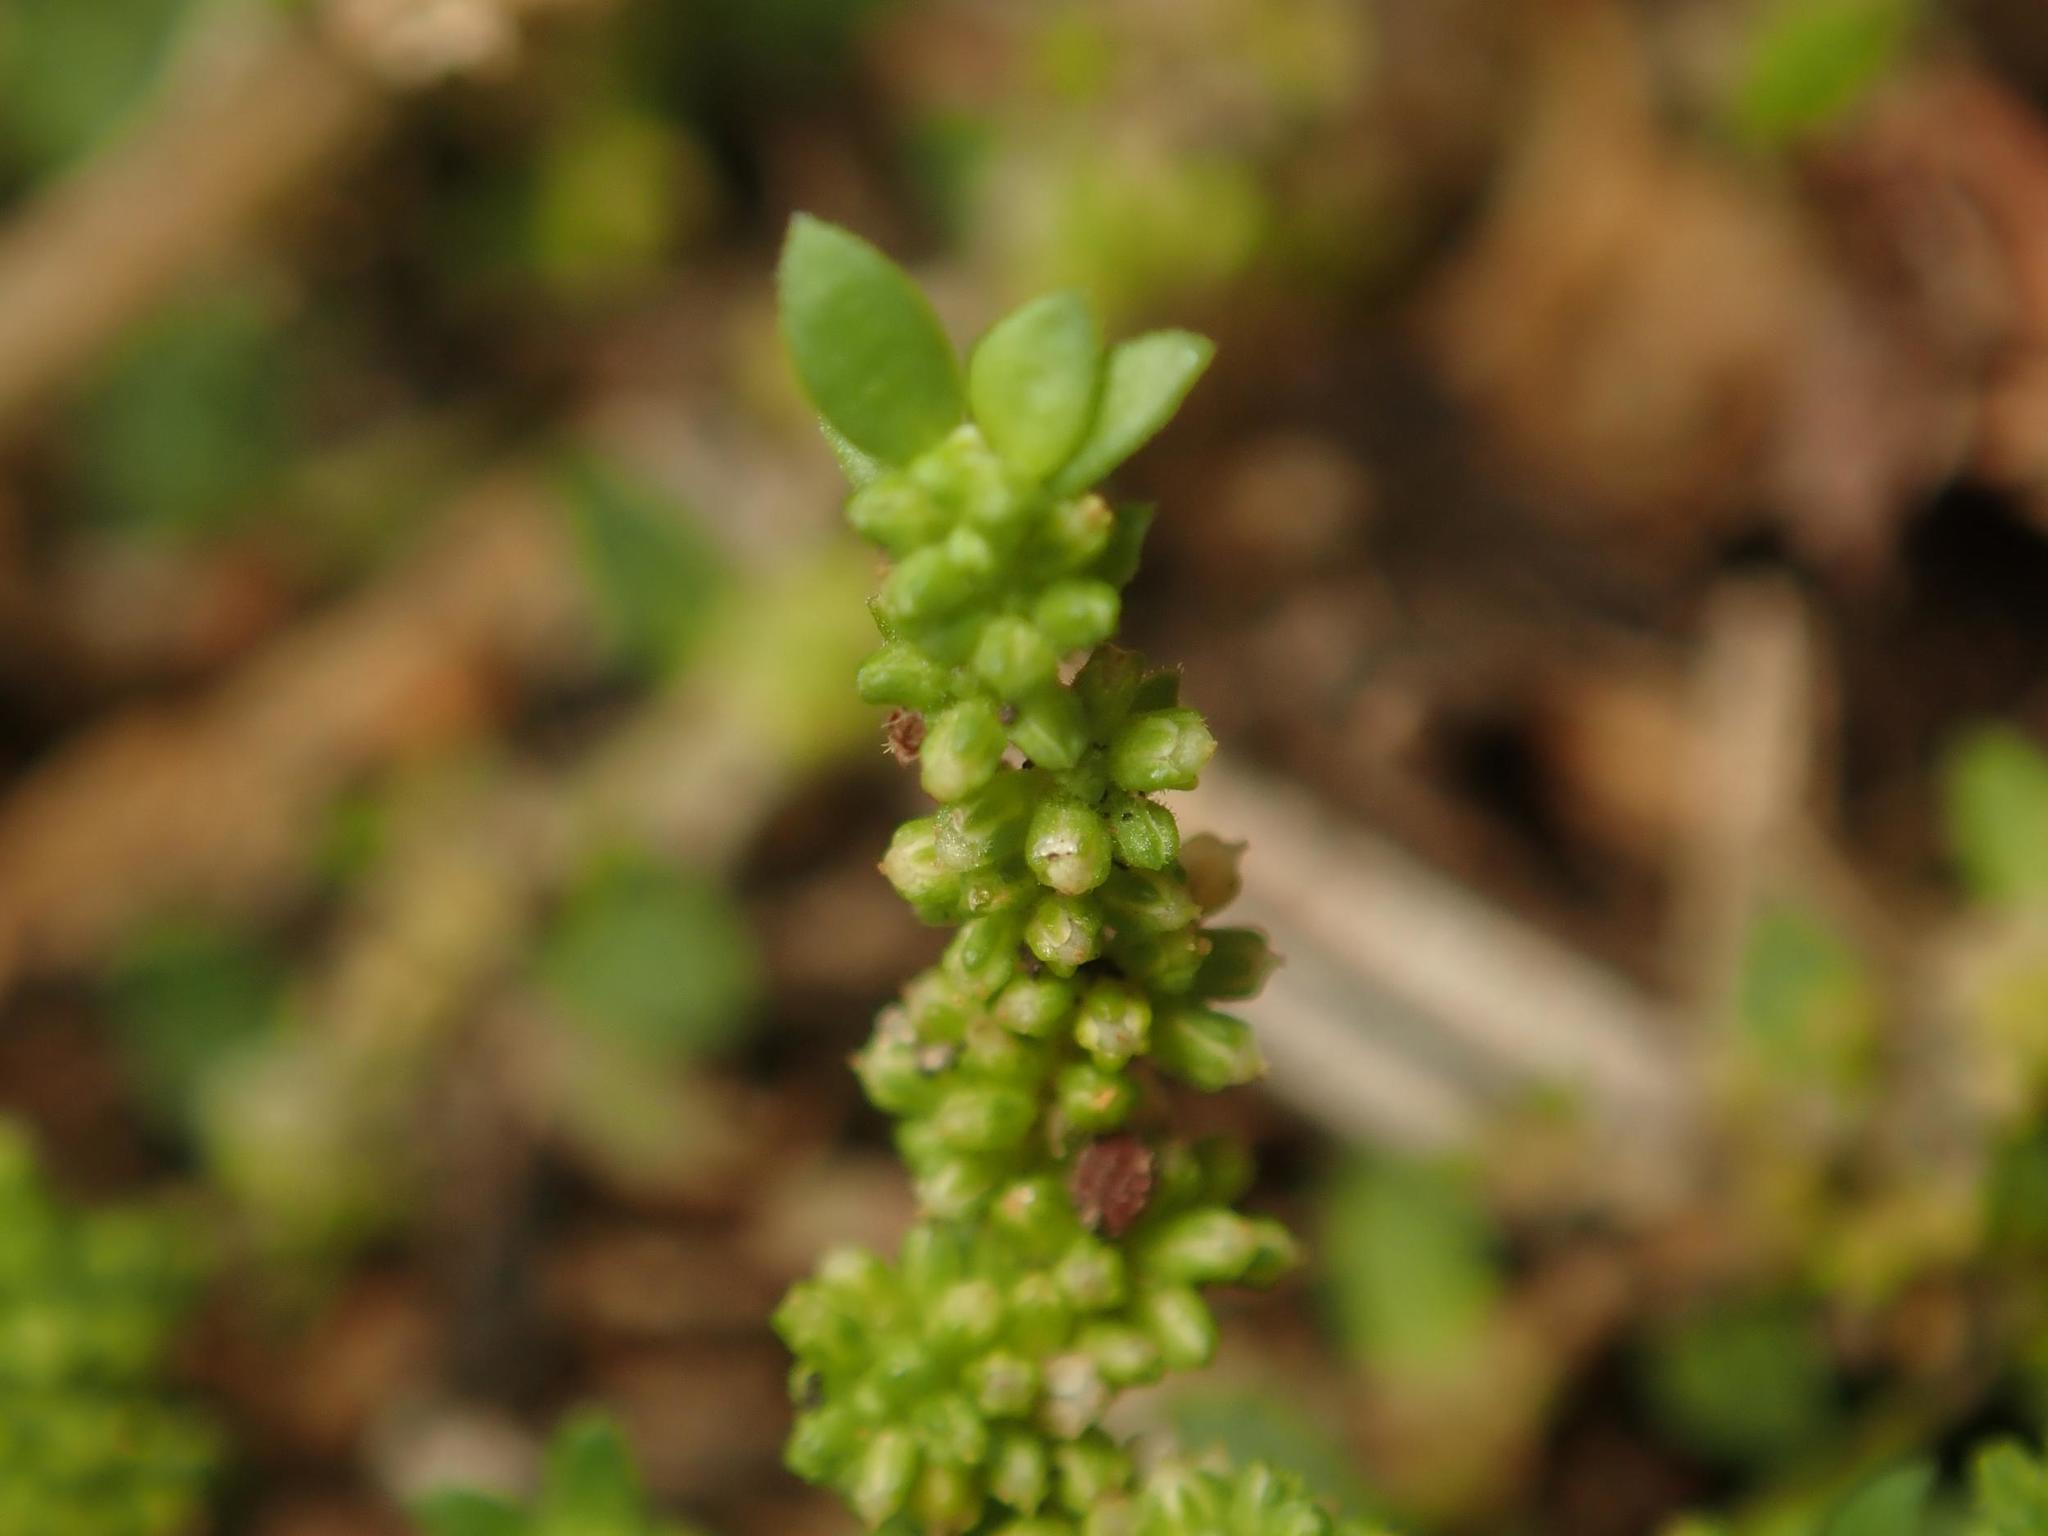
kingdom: Plantae
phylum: Tracheophyta
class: Magnoliopsida
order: Caryophyllales
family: Caryophyllaceae
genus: Herniaria
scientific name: Herniaria glabra
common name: Smooth rupturewort
